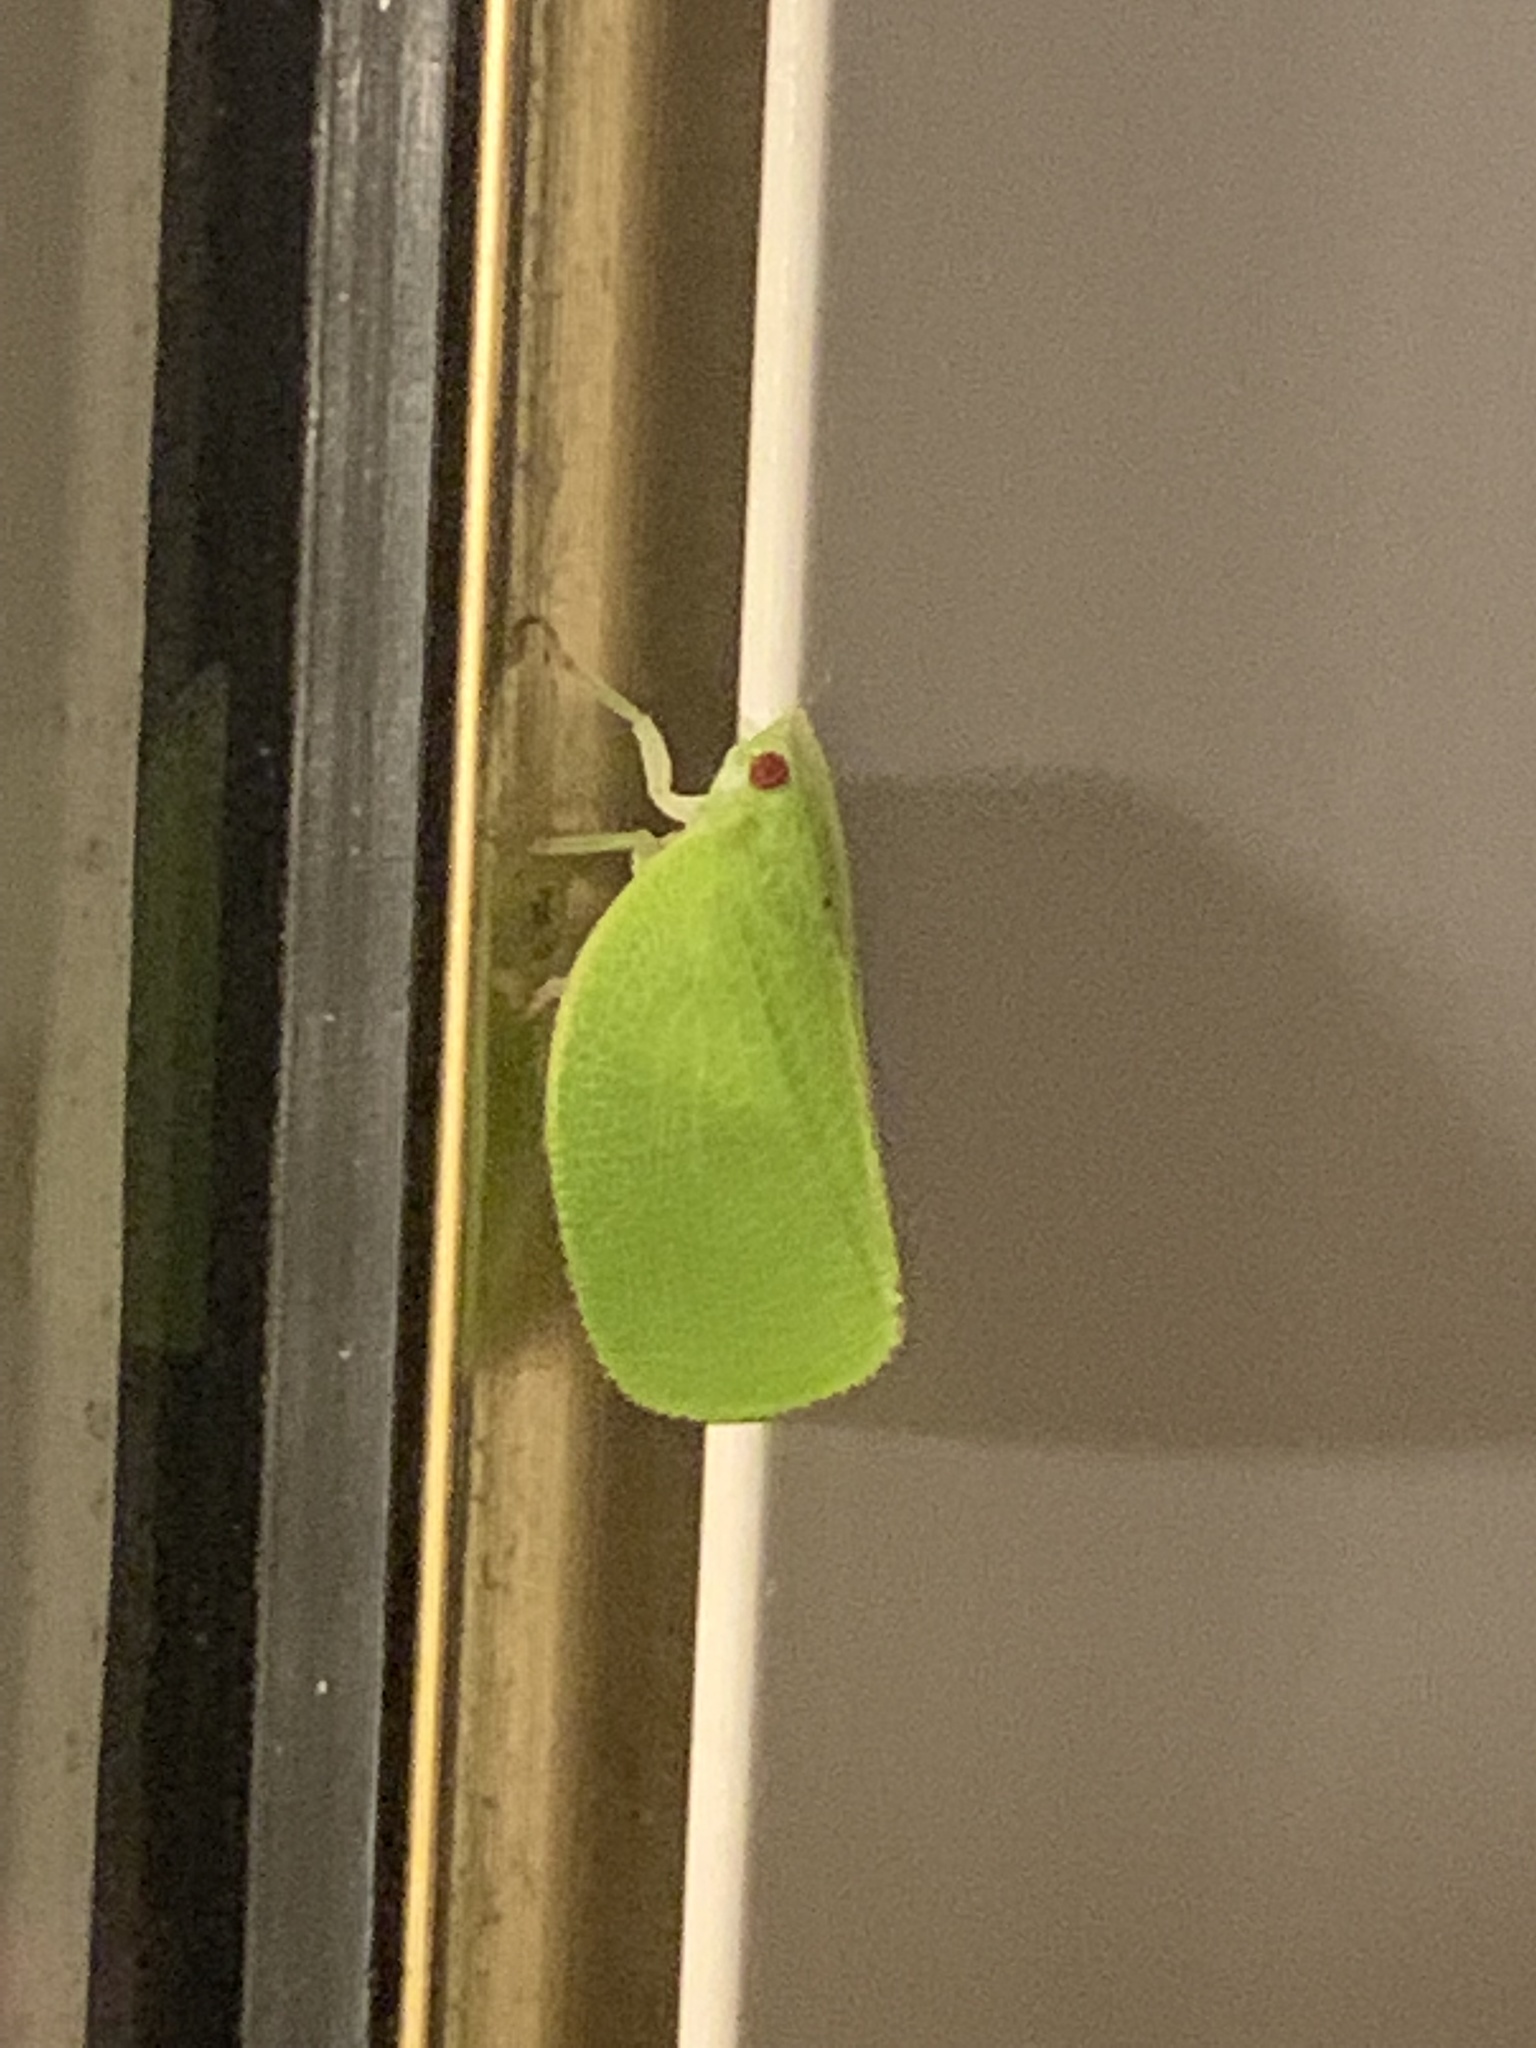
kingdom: Animalia
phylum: Arthropoda
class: Insecta
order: Hemiptera
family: Acanaloniidae
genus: Acanalonia
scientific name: Acanalonia conica
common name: Green cone-headed planthopper
